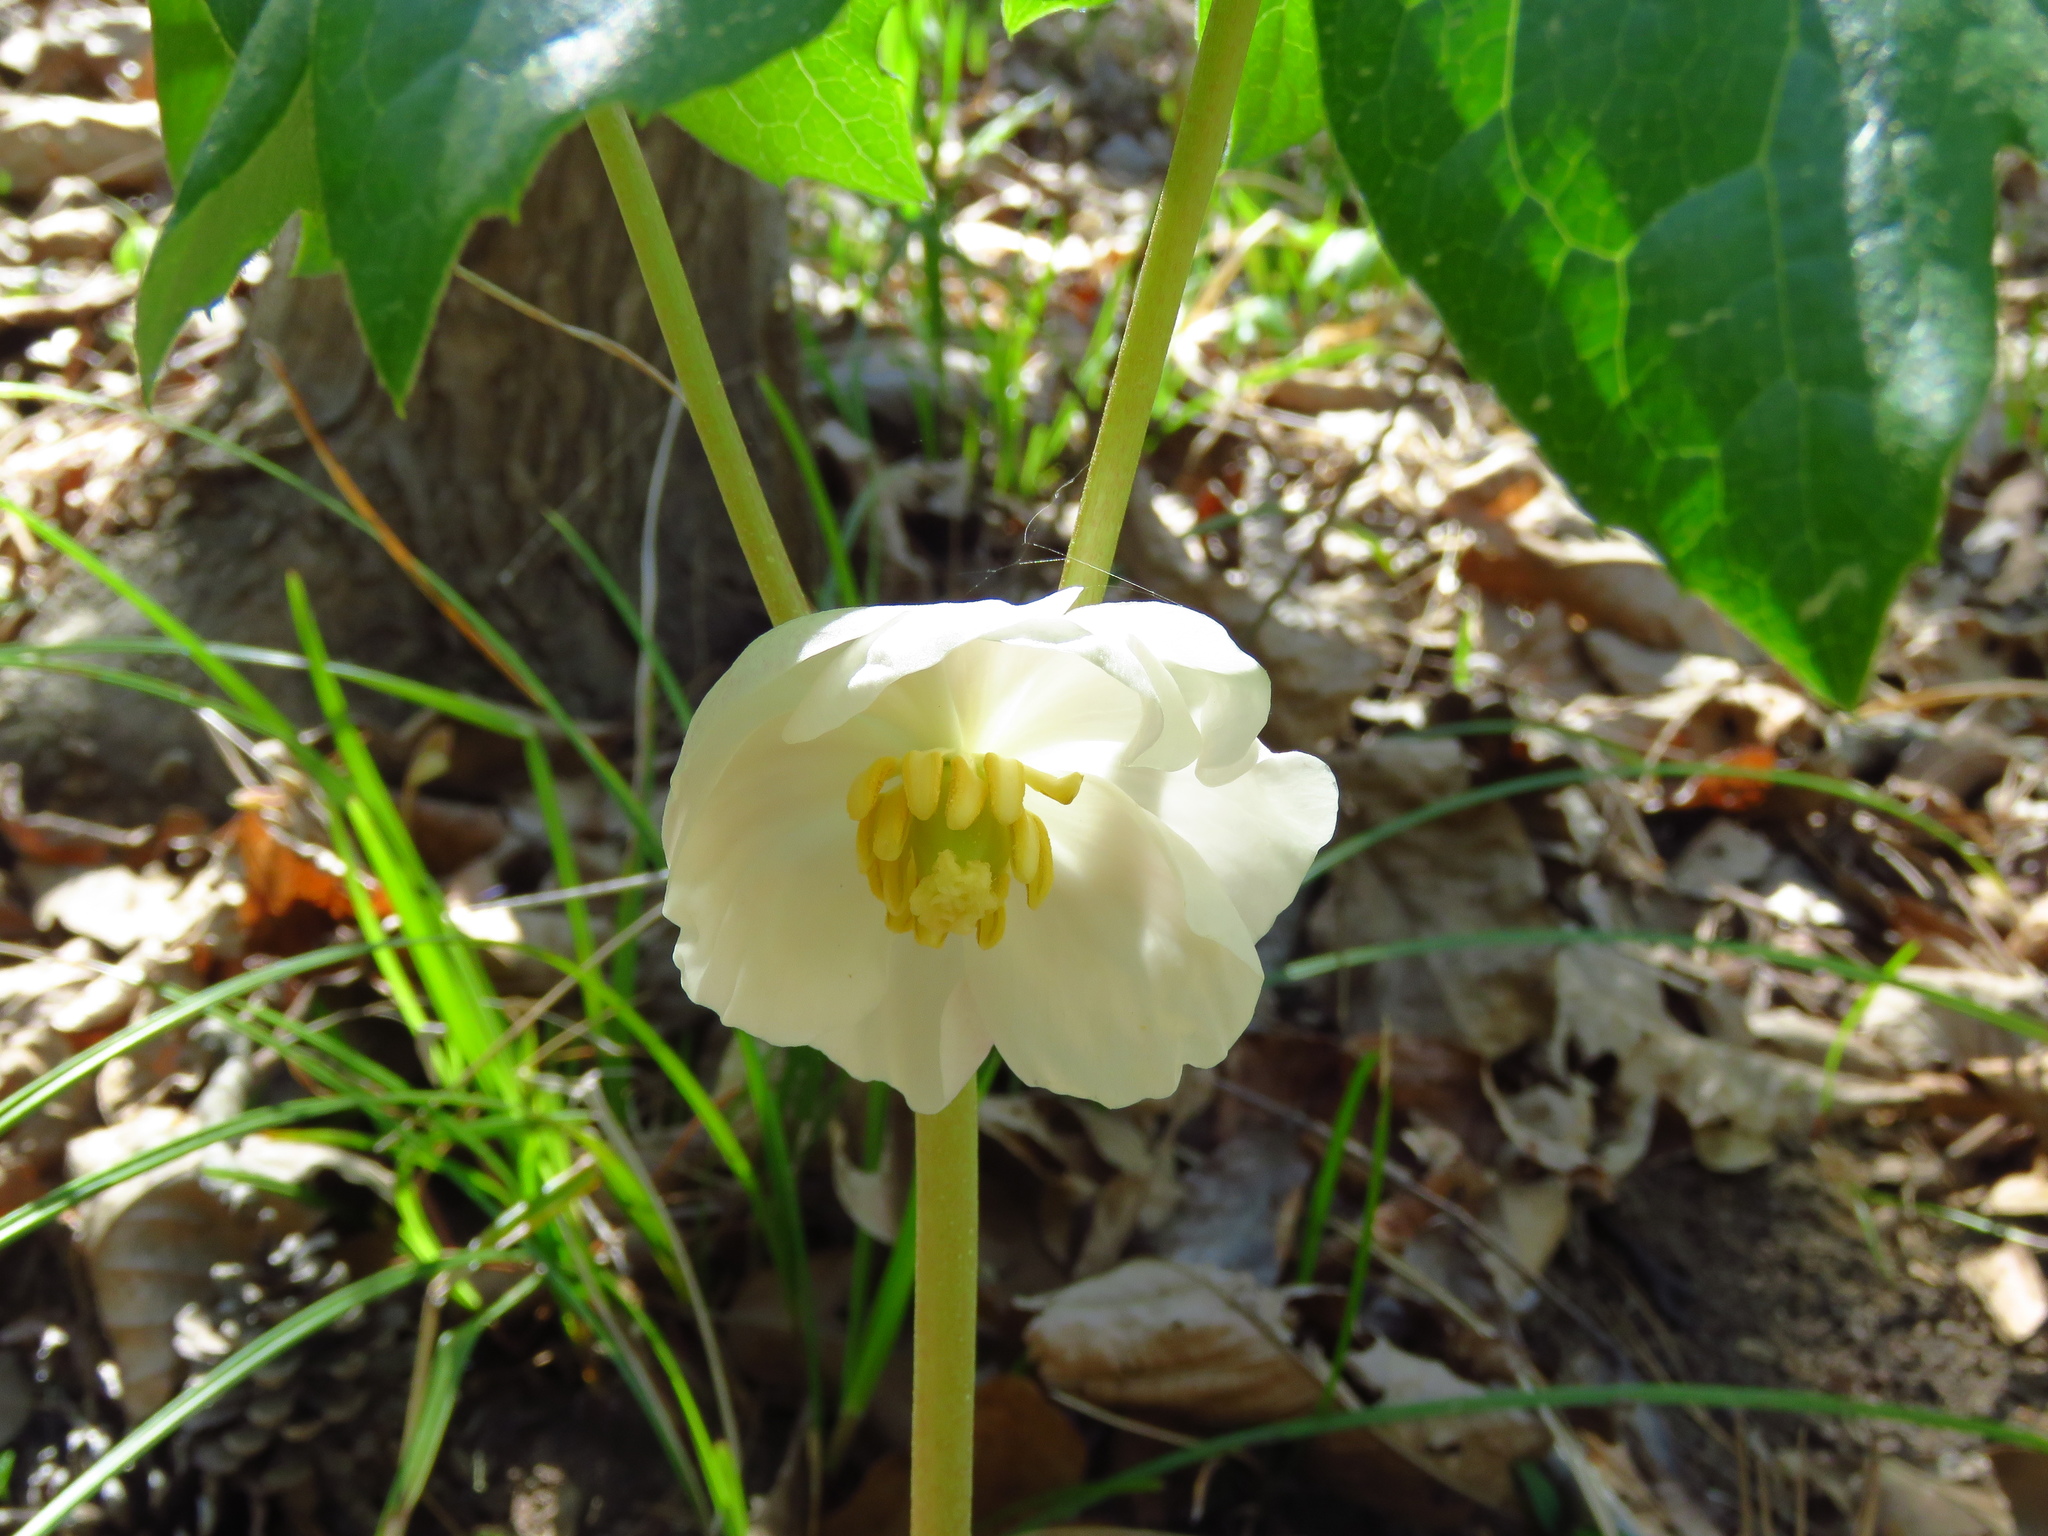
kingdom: Plantae
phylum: Tracheophyta
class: Magnoliopsida
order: Ranunculales
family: Berberidaceae
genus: Podophyllum
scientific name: Podophyllum peltatum
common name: Wild mandrake
